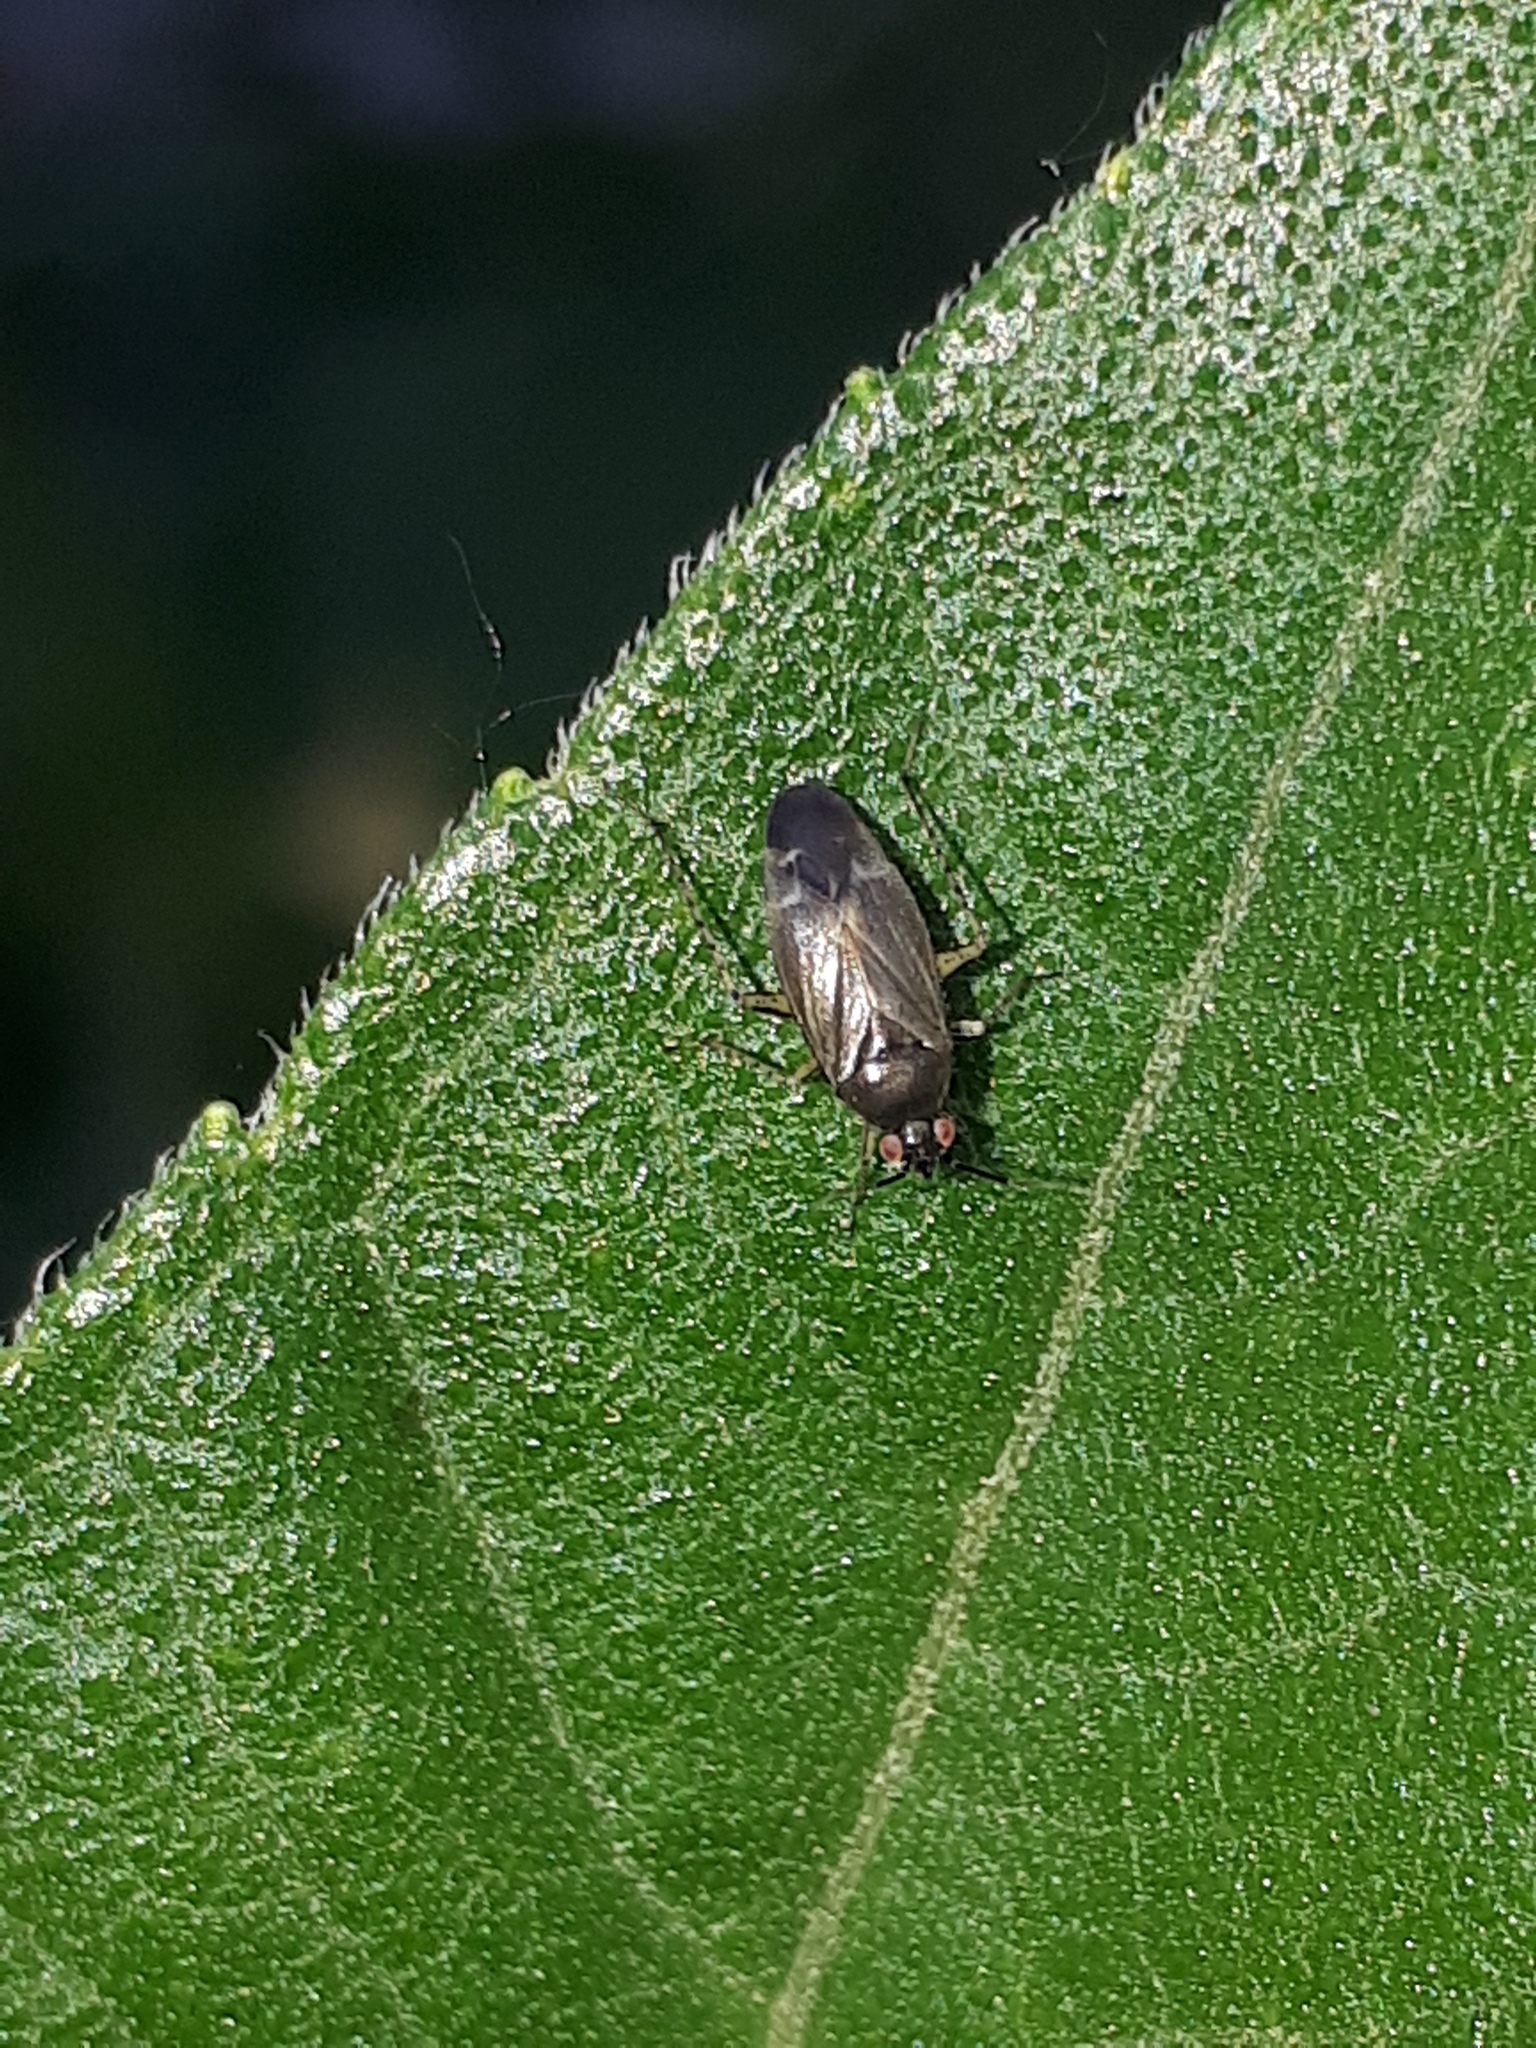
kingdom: Animalia
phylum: Arthropoda
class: Insecta
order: Hemiptera
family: Miridae
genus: Plagiognathus
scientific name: Plagiognathus arbustorum
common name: Plant bug
